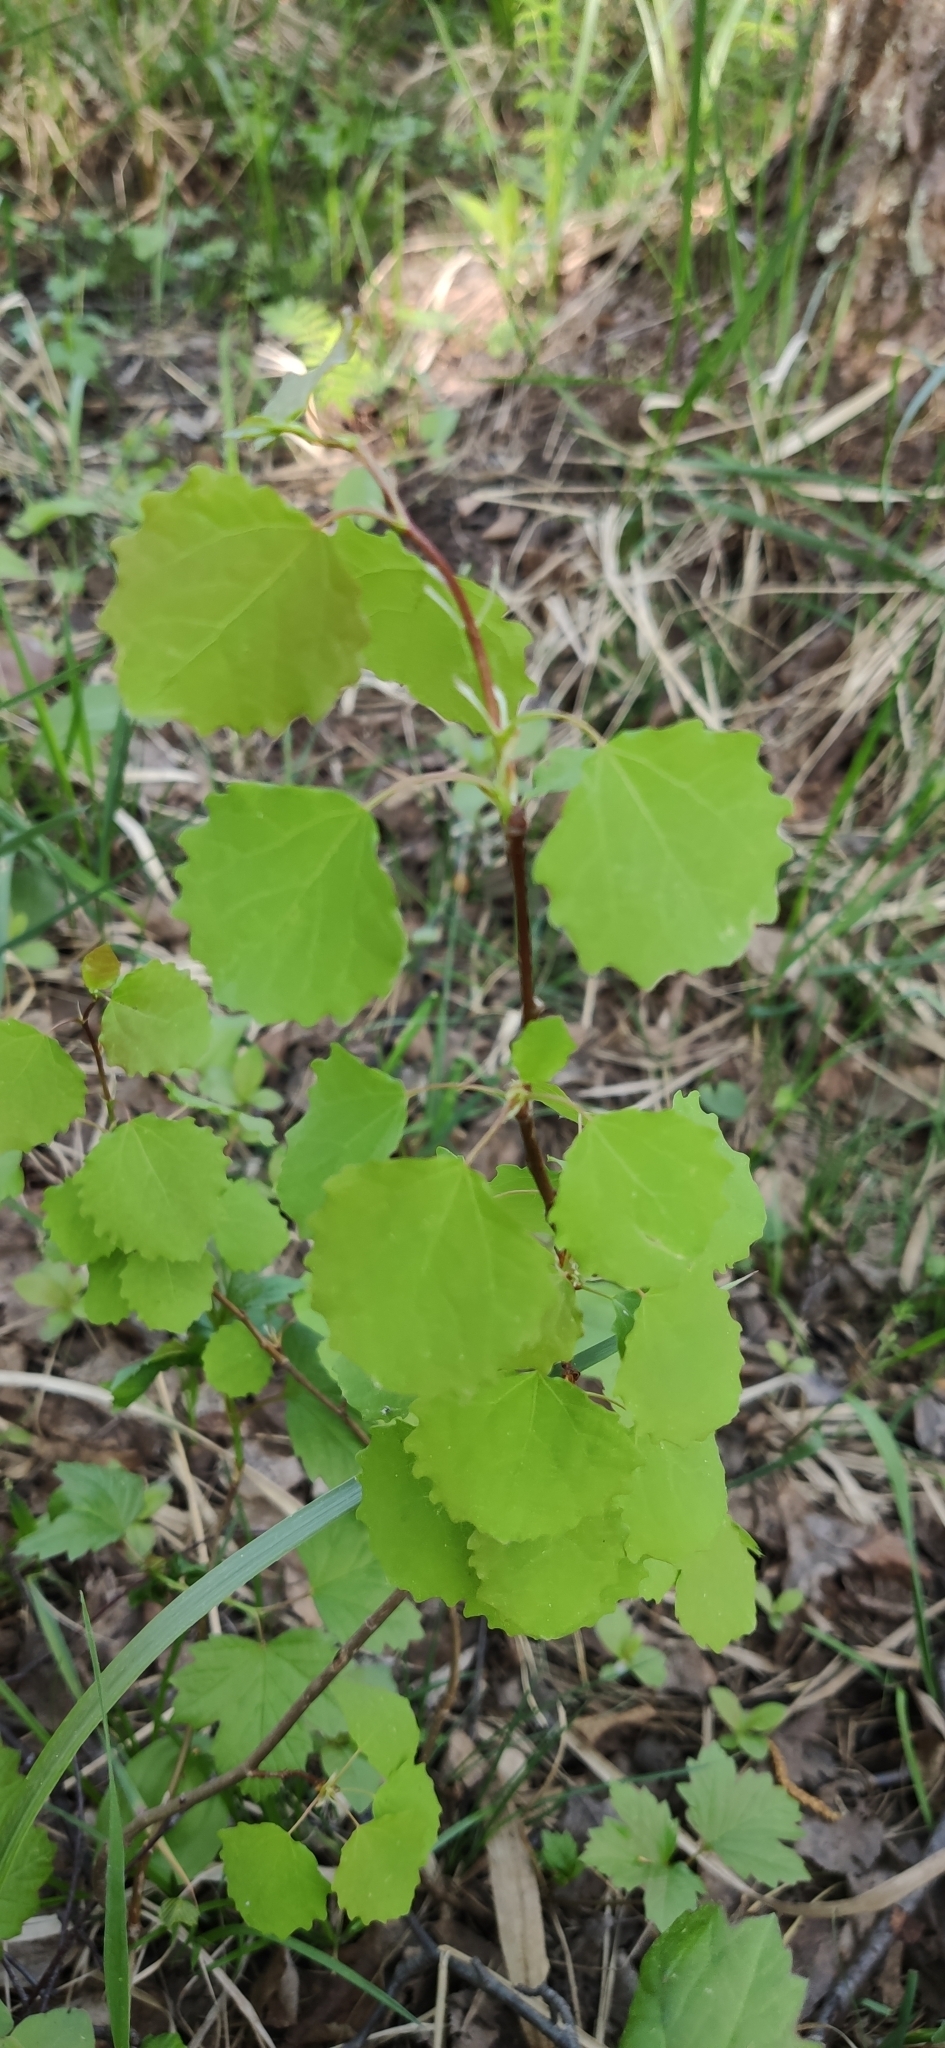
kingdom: Plantae
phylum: Tracheophyta
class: Magnoliopsida
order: Malpighiales
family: Salicaceae
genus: Populus
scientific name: Populus tremula
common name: European aspen
